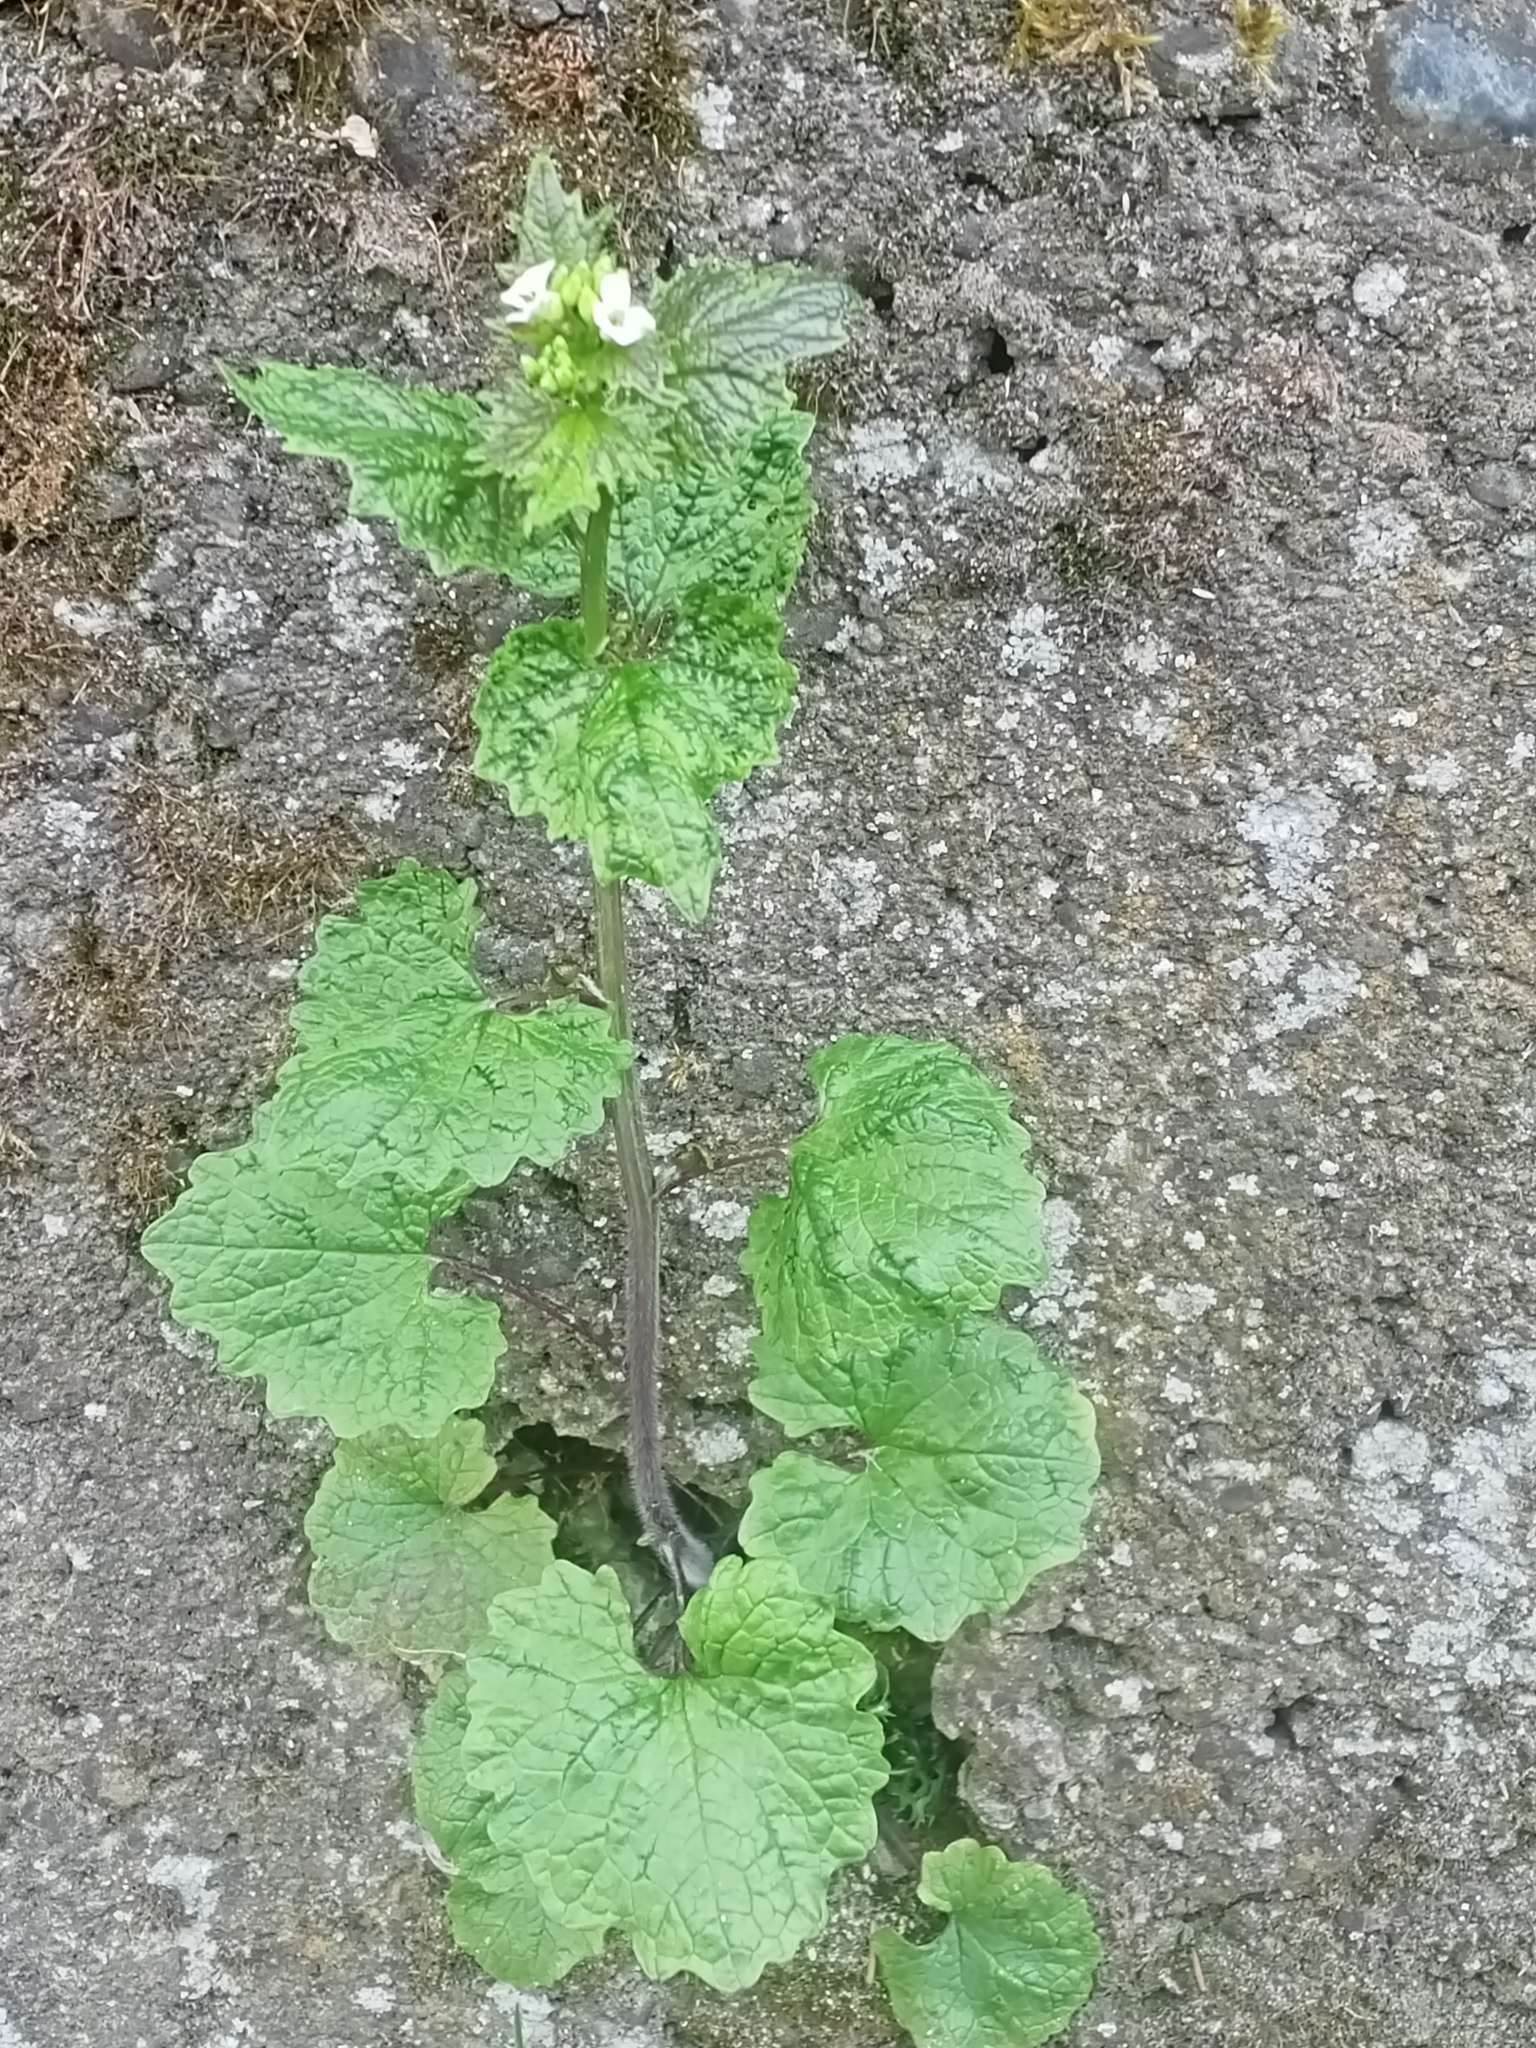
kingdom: Plantae
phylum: Tracheophyta
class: Magnoliopsida
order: Brassicales
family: Brassicaceae
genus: Alliaria
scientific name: Alliaria petiolata
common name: Garlic mustard
